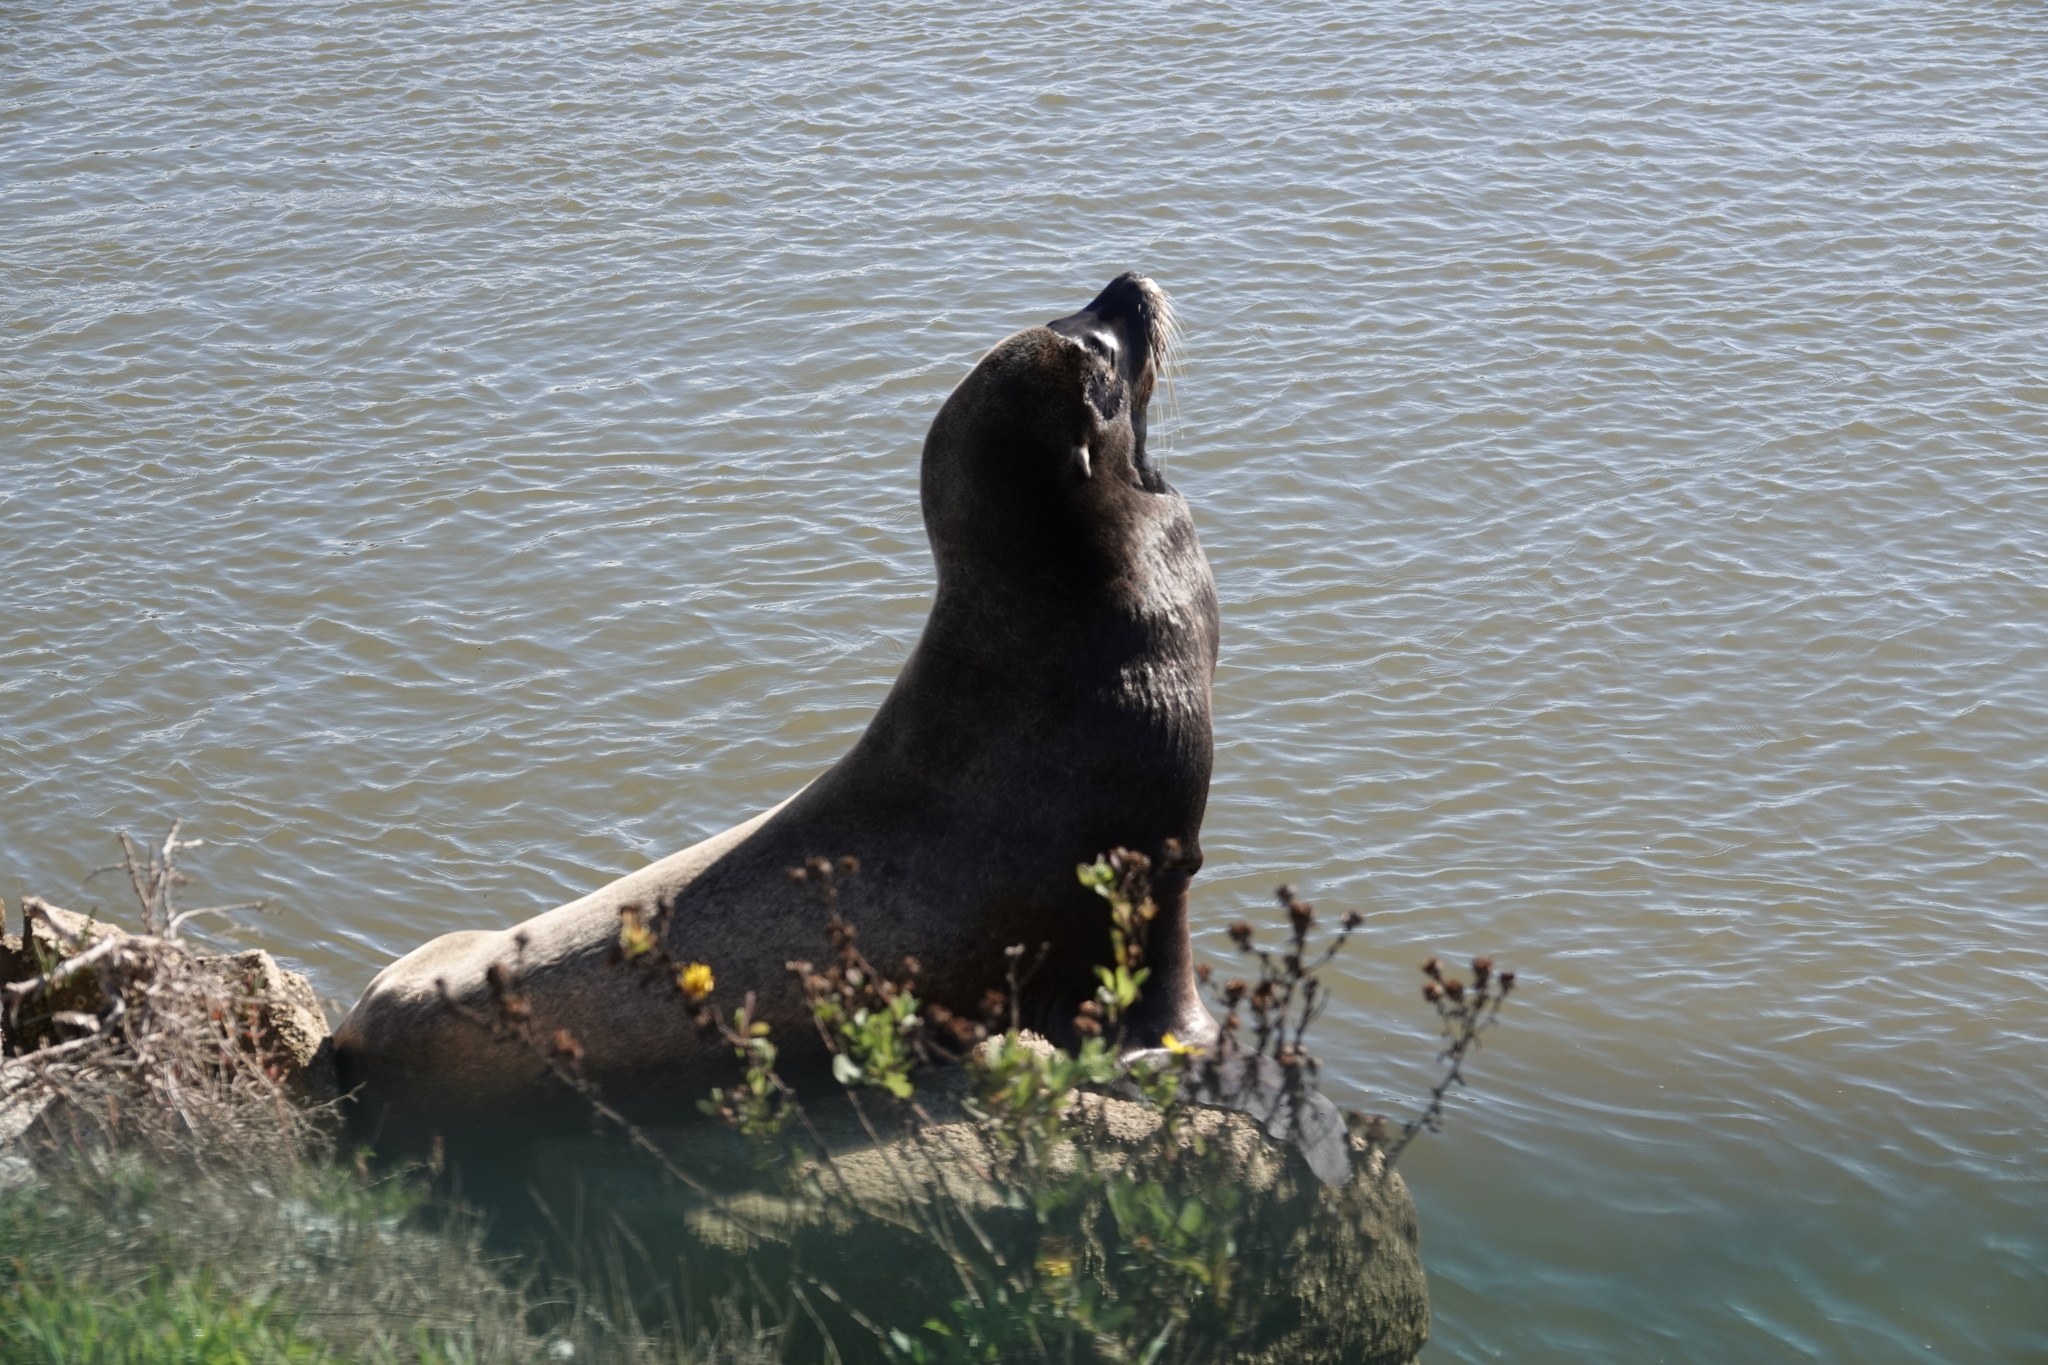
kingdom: Animalia
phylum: Chordata
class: Mammalia
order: Carnivora
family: Otariidae
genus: Zalophus
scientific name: Zalophus californianus
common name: California sea lion
